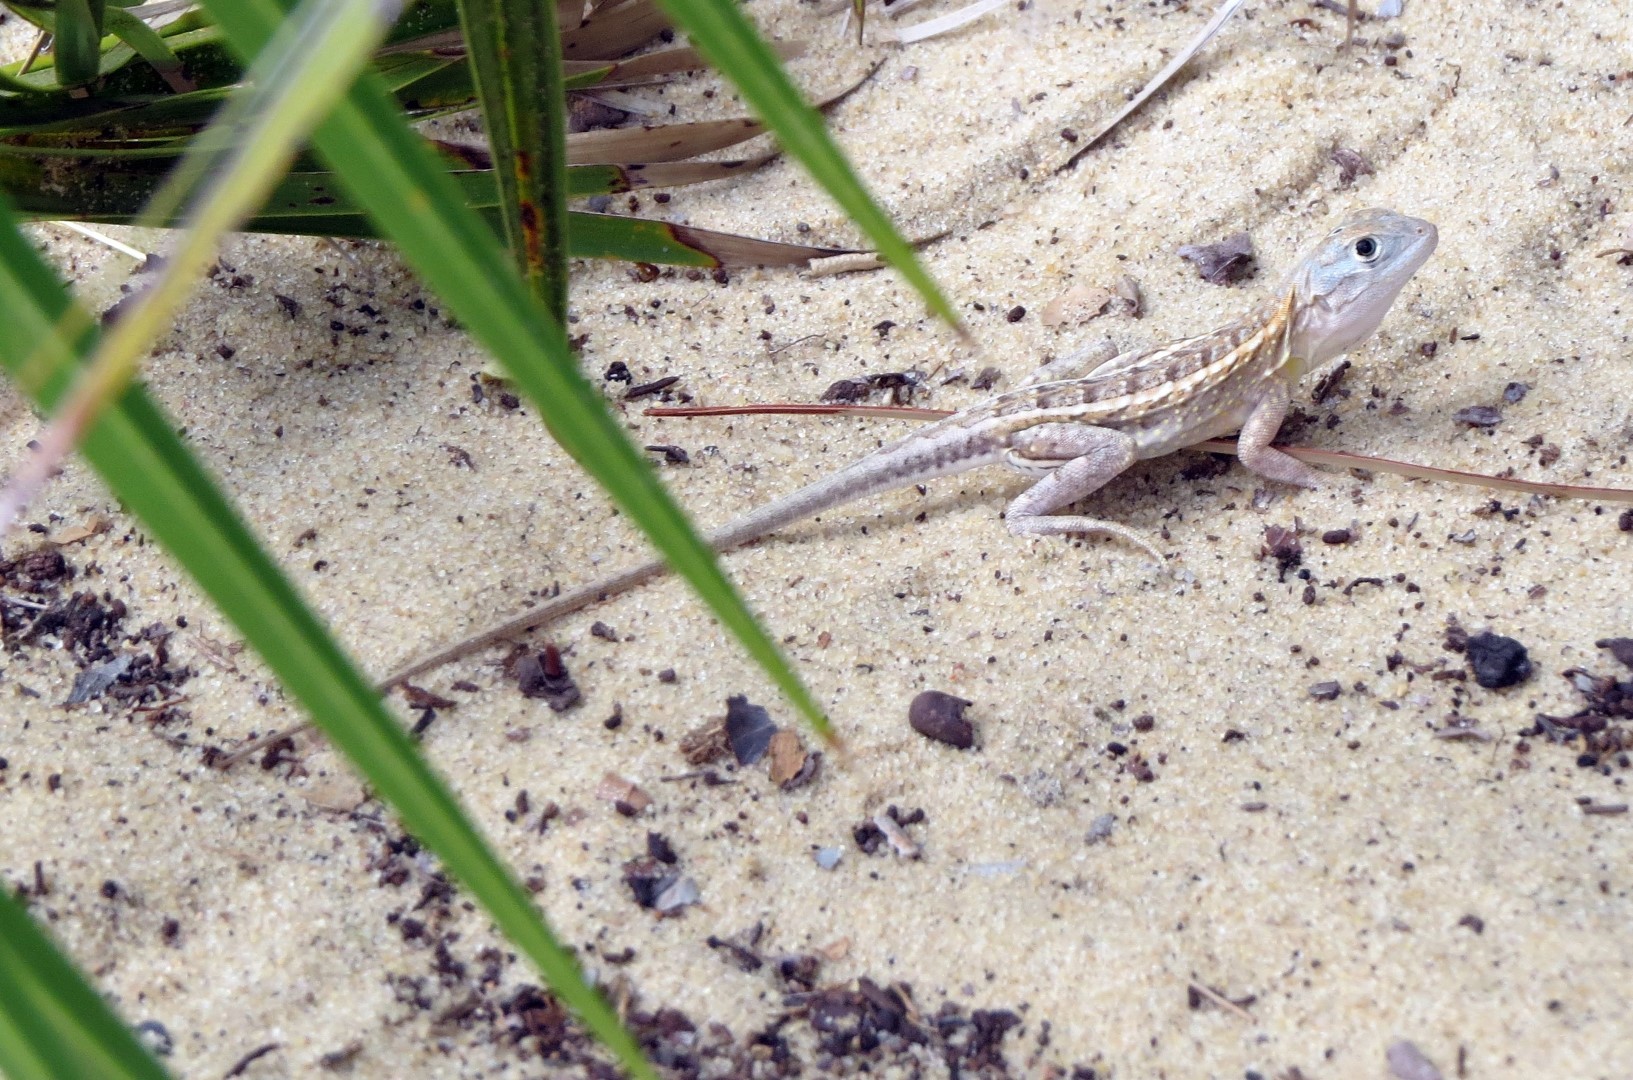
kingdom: Animalia
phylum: Chordata
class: Squamata
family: Opluridae
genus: Chalarodon
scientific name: Chalarodon madagascariensis
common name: Madagascar iguana
